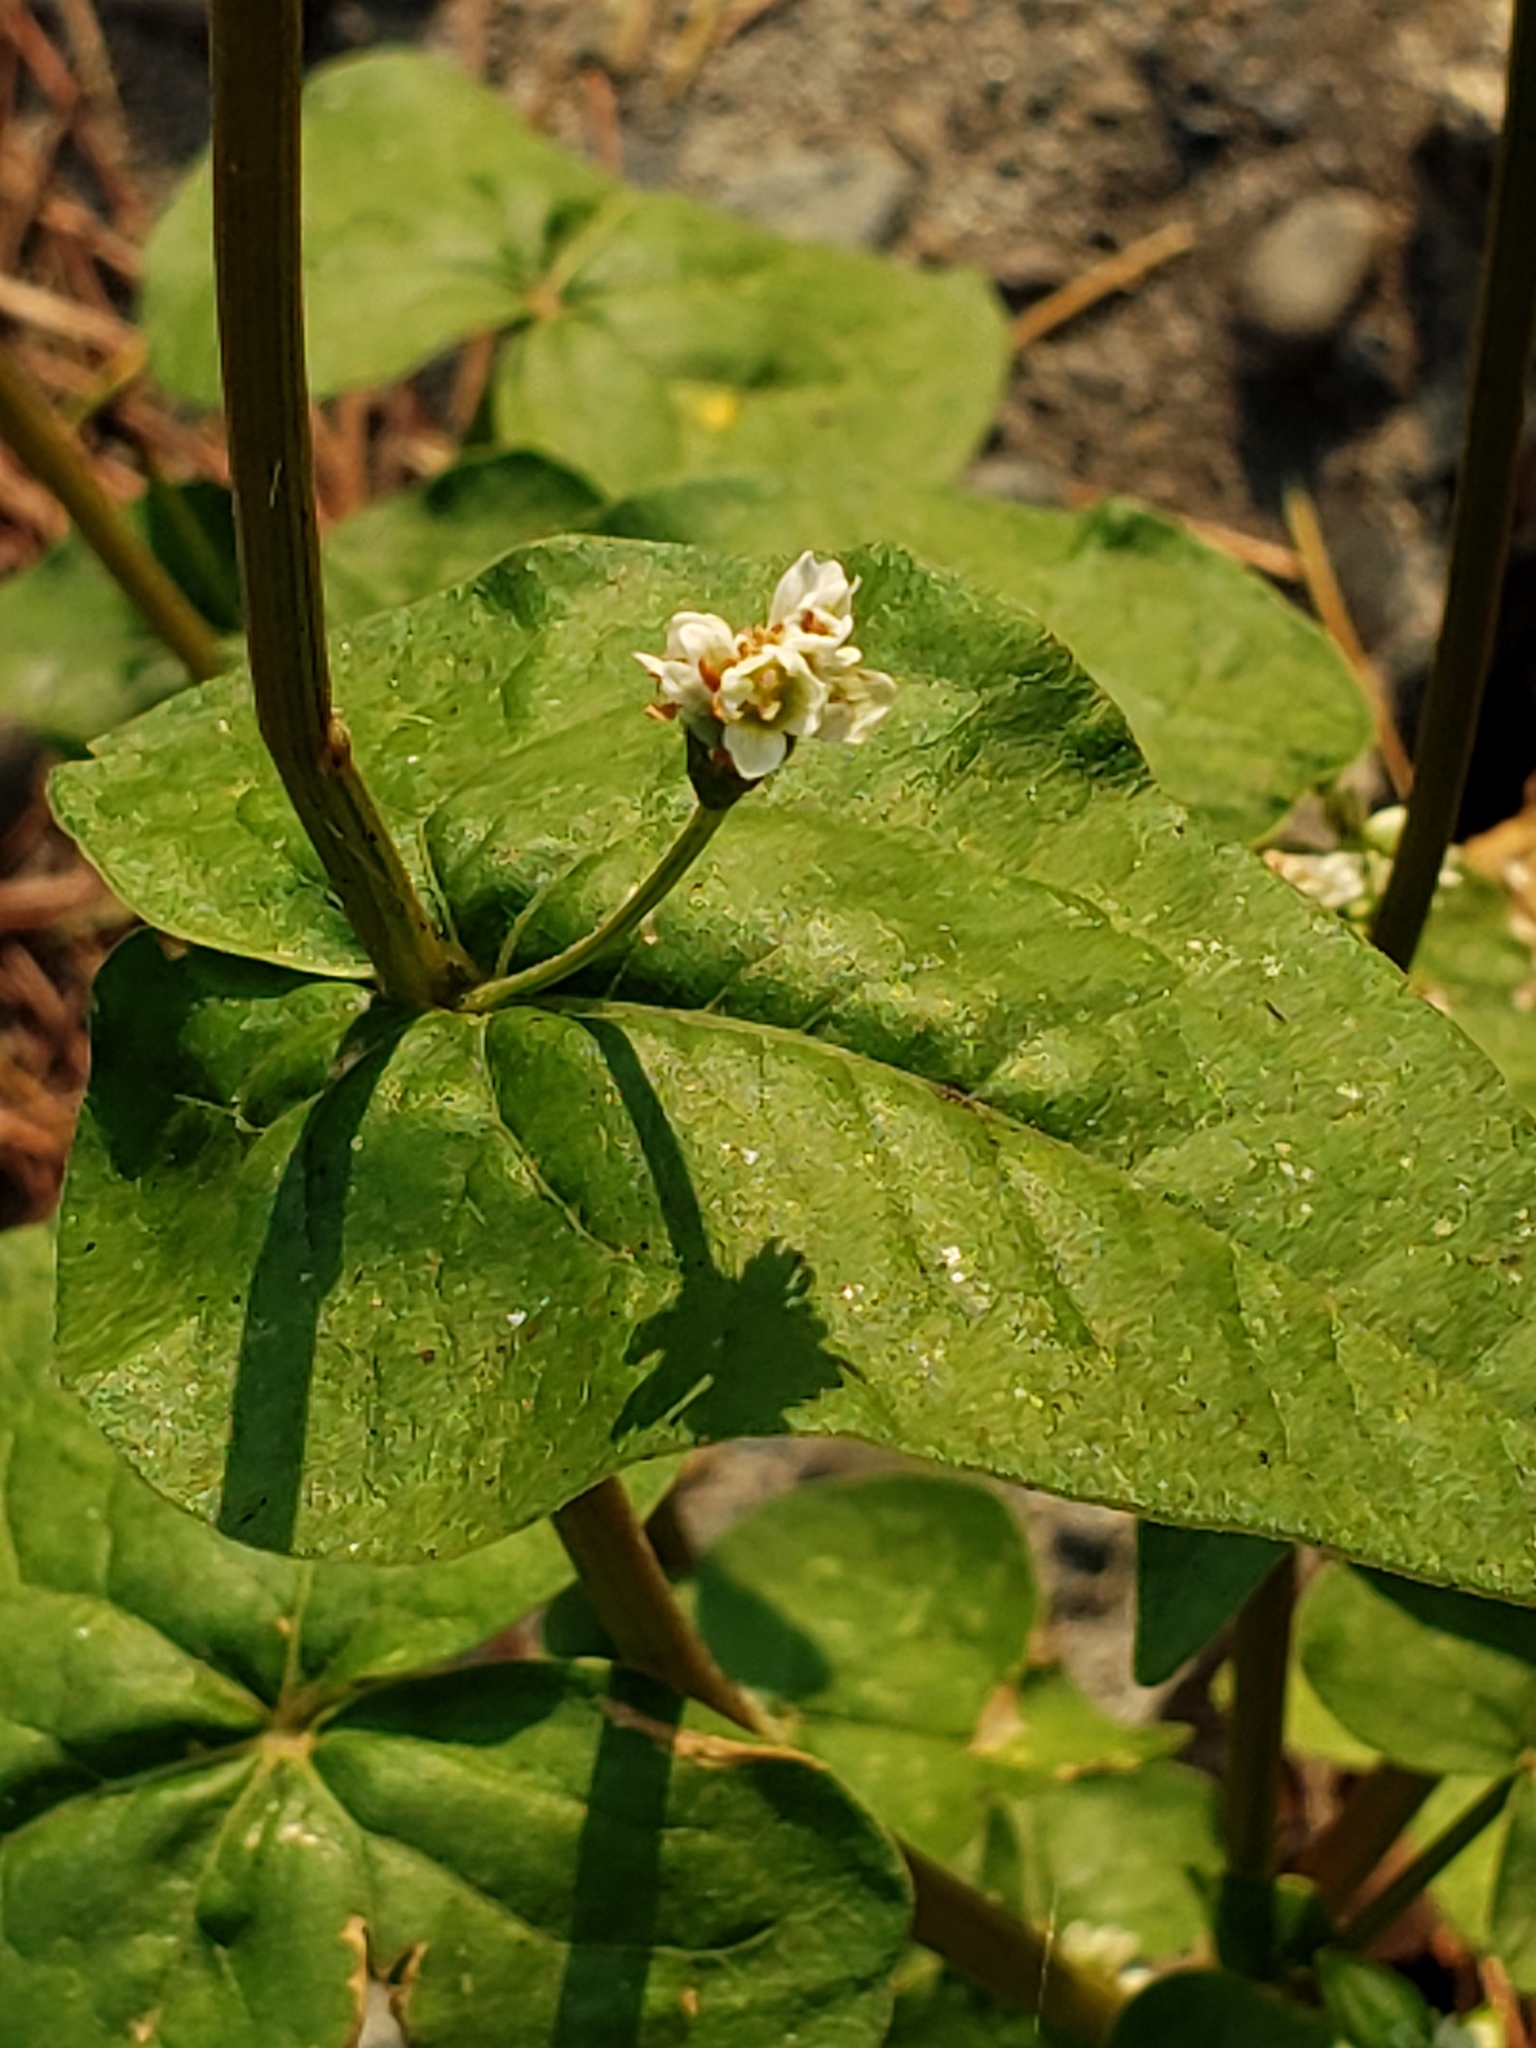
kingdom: Plantae
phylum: Tracheophyta
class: Magnoliopsida
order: Caryophyllales
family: Polygonaceae
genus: Fagopyrum
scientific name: Fagopyrum esculentum
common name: Buckwheat
